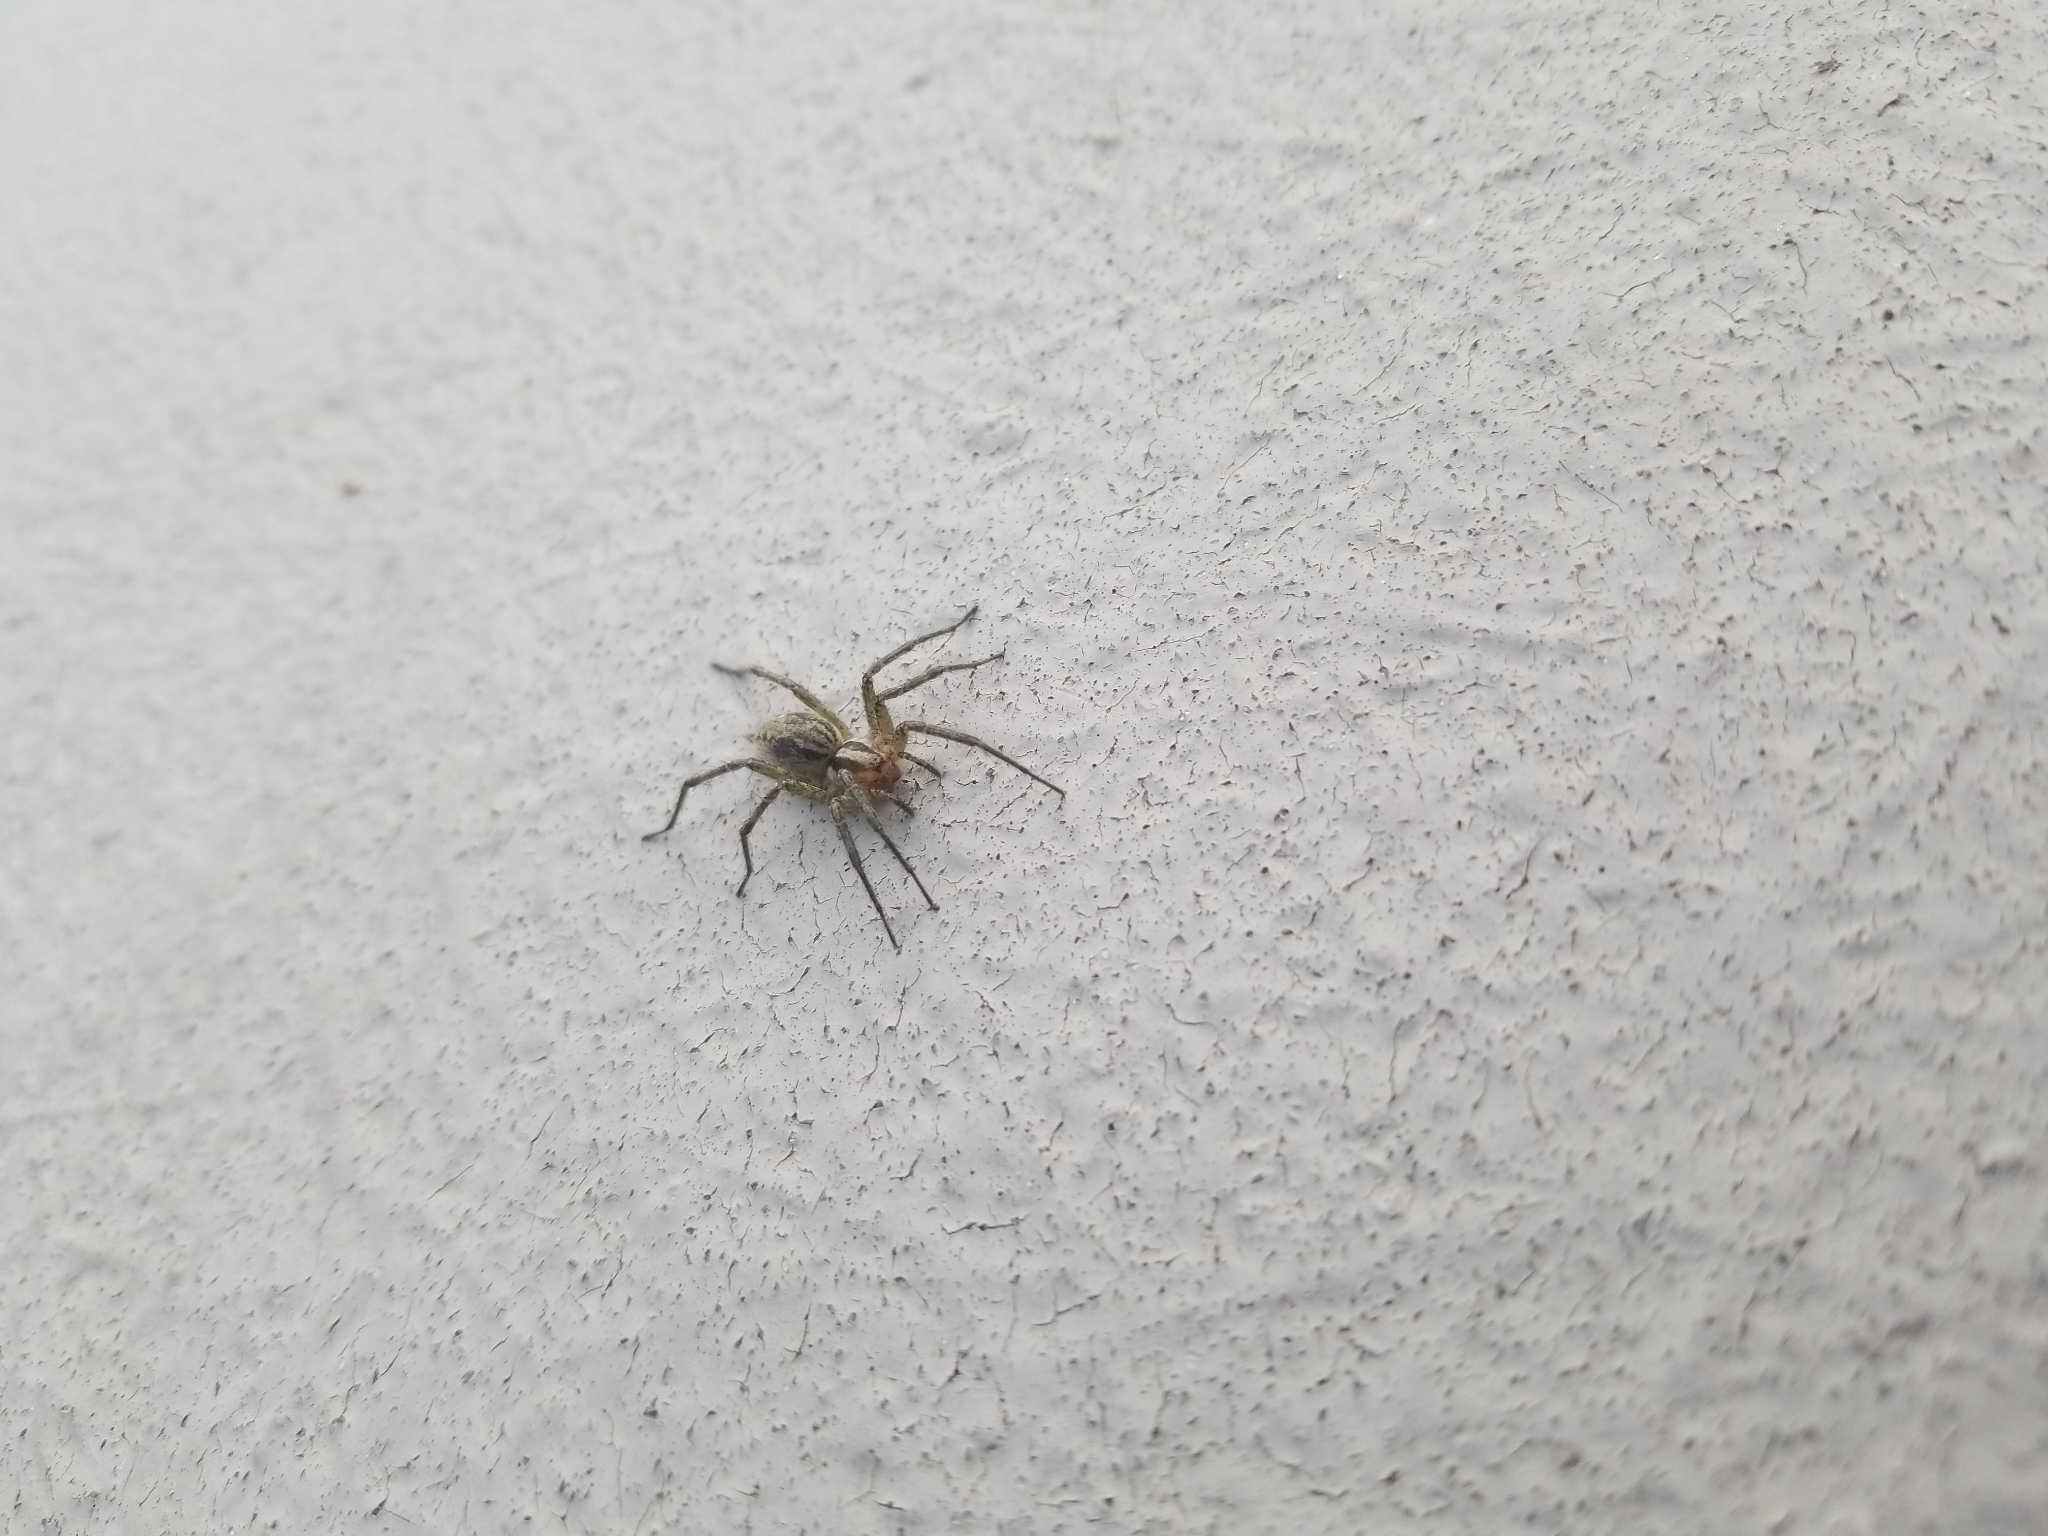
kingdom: Animalia
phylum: Arthropoda
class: Arachnida
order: Araneae
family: Agelenidae
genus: Agelenopsis
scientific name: Agelenopsis
